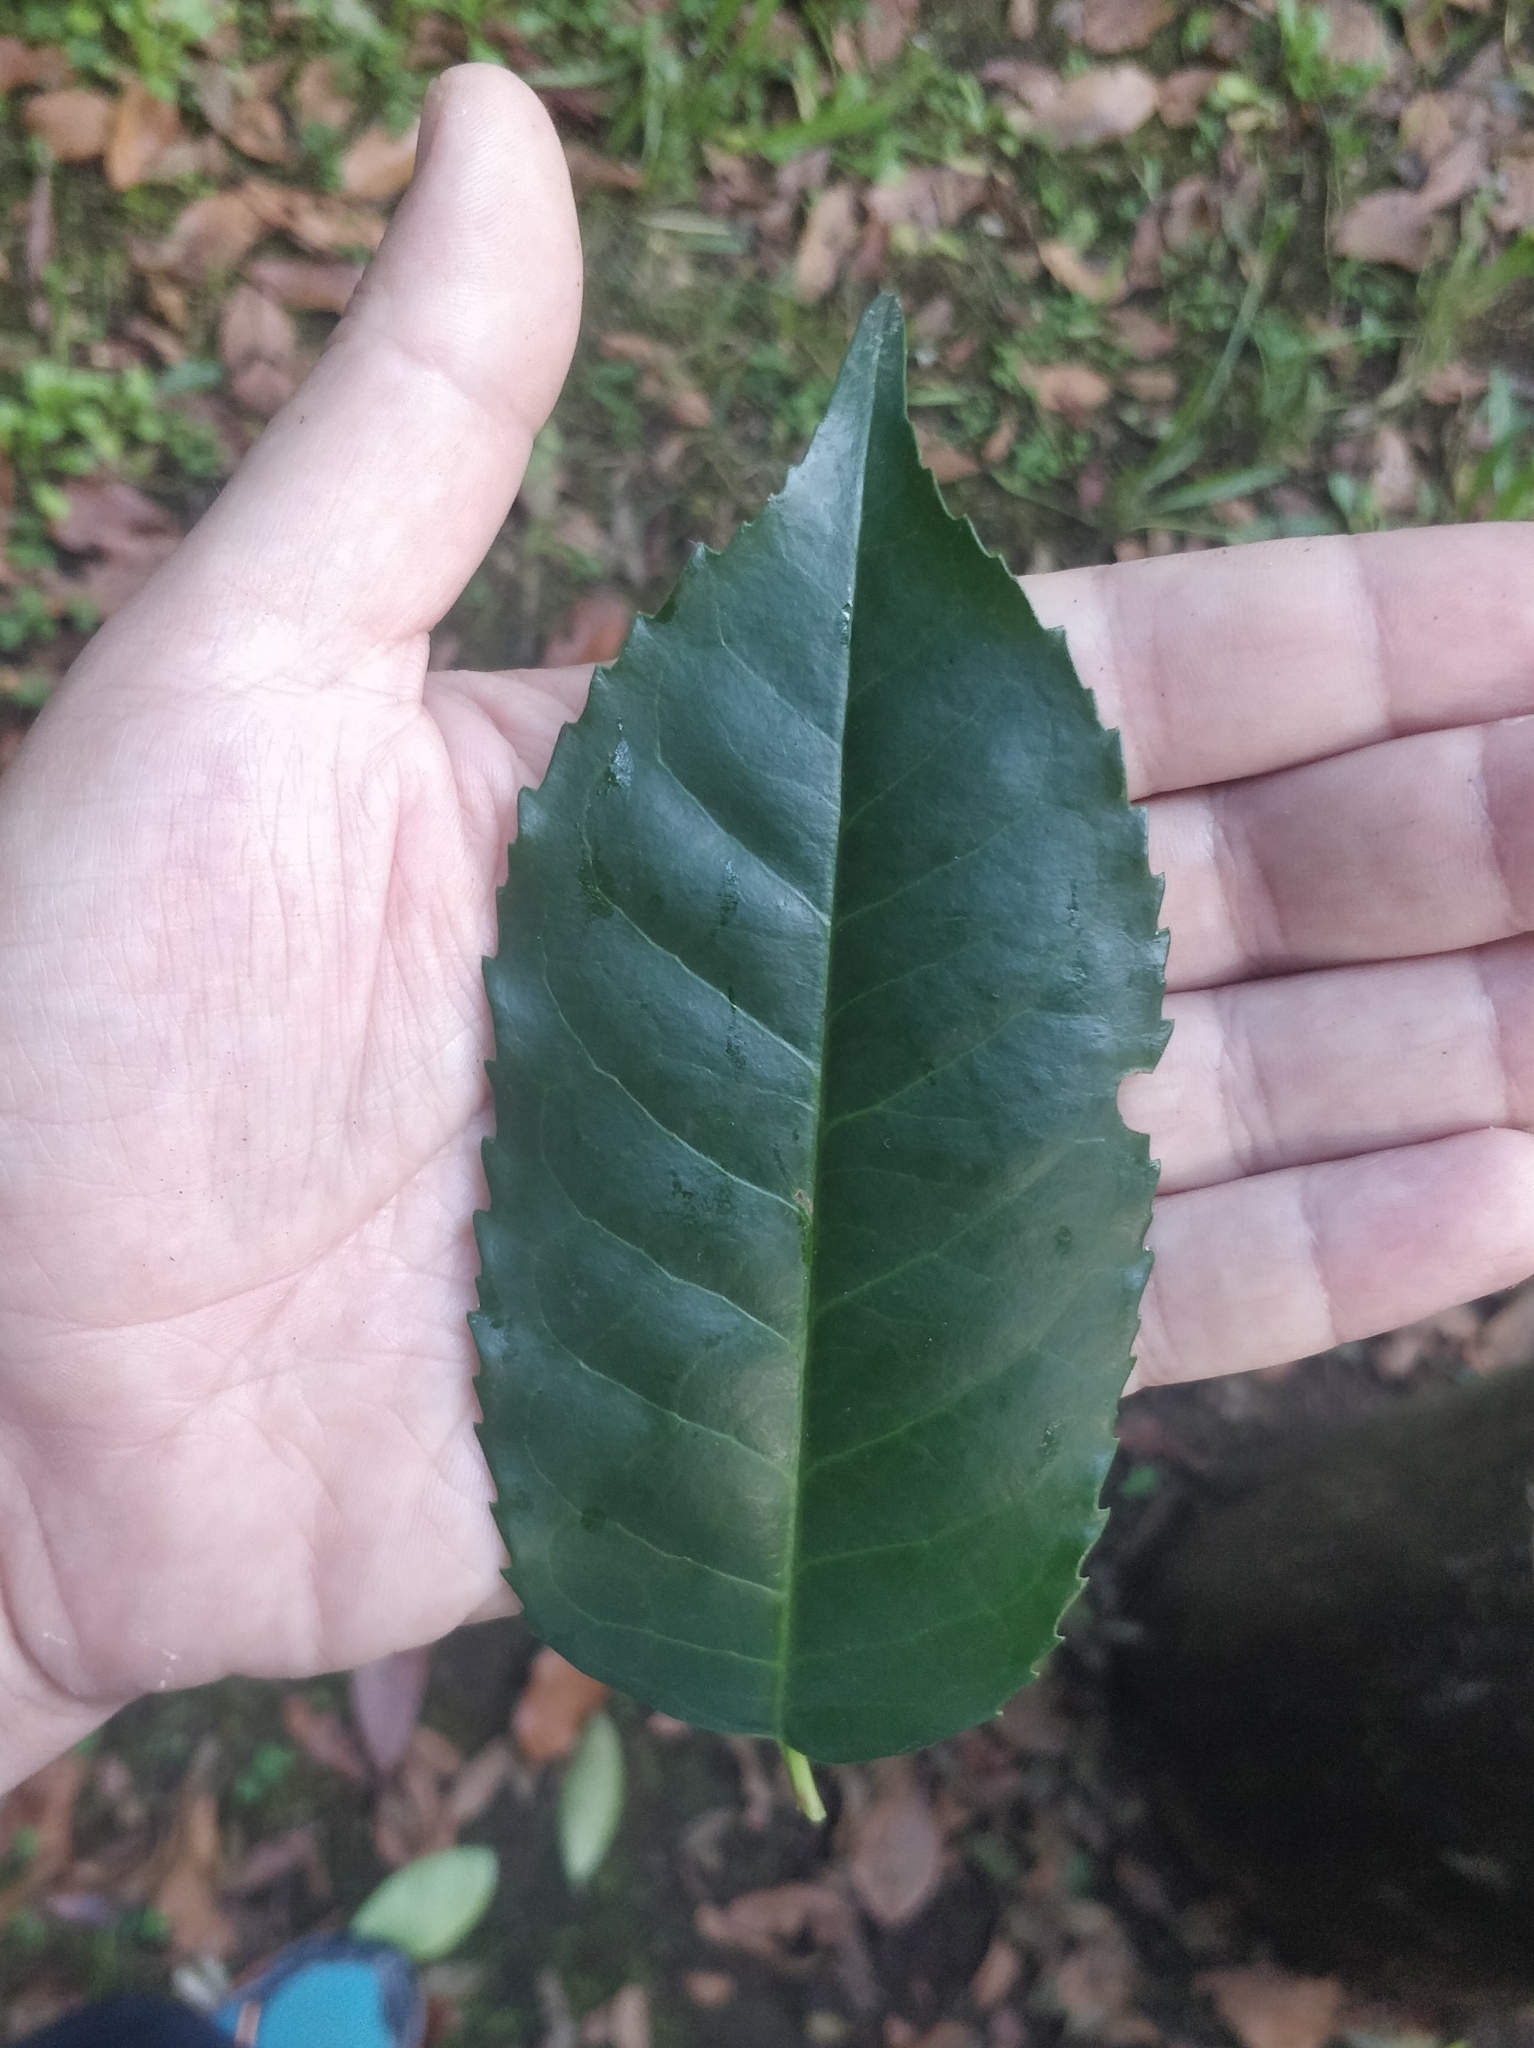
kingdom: Plantae
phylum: Tracheophyta
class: Magnoliopsida
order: Rosales
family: Rosaceae
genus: Prunus
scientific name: Prunus hixa
